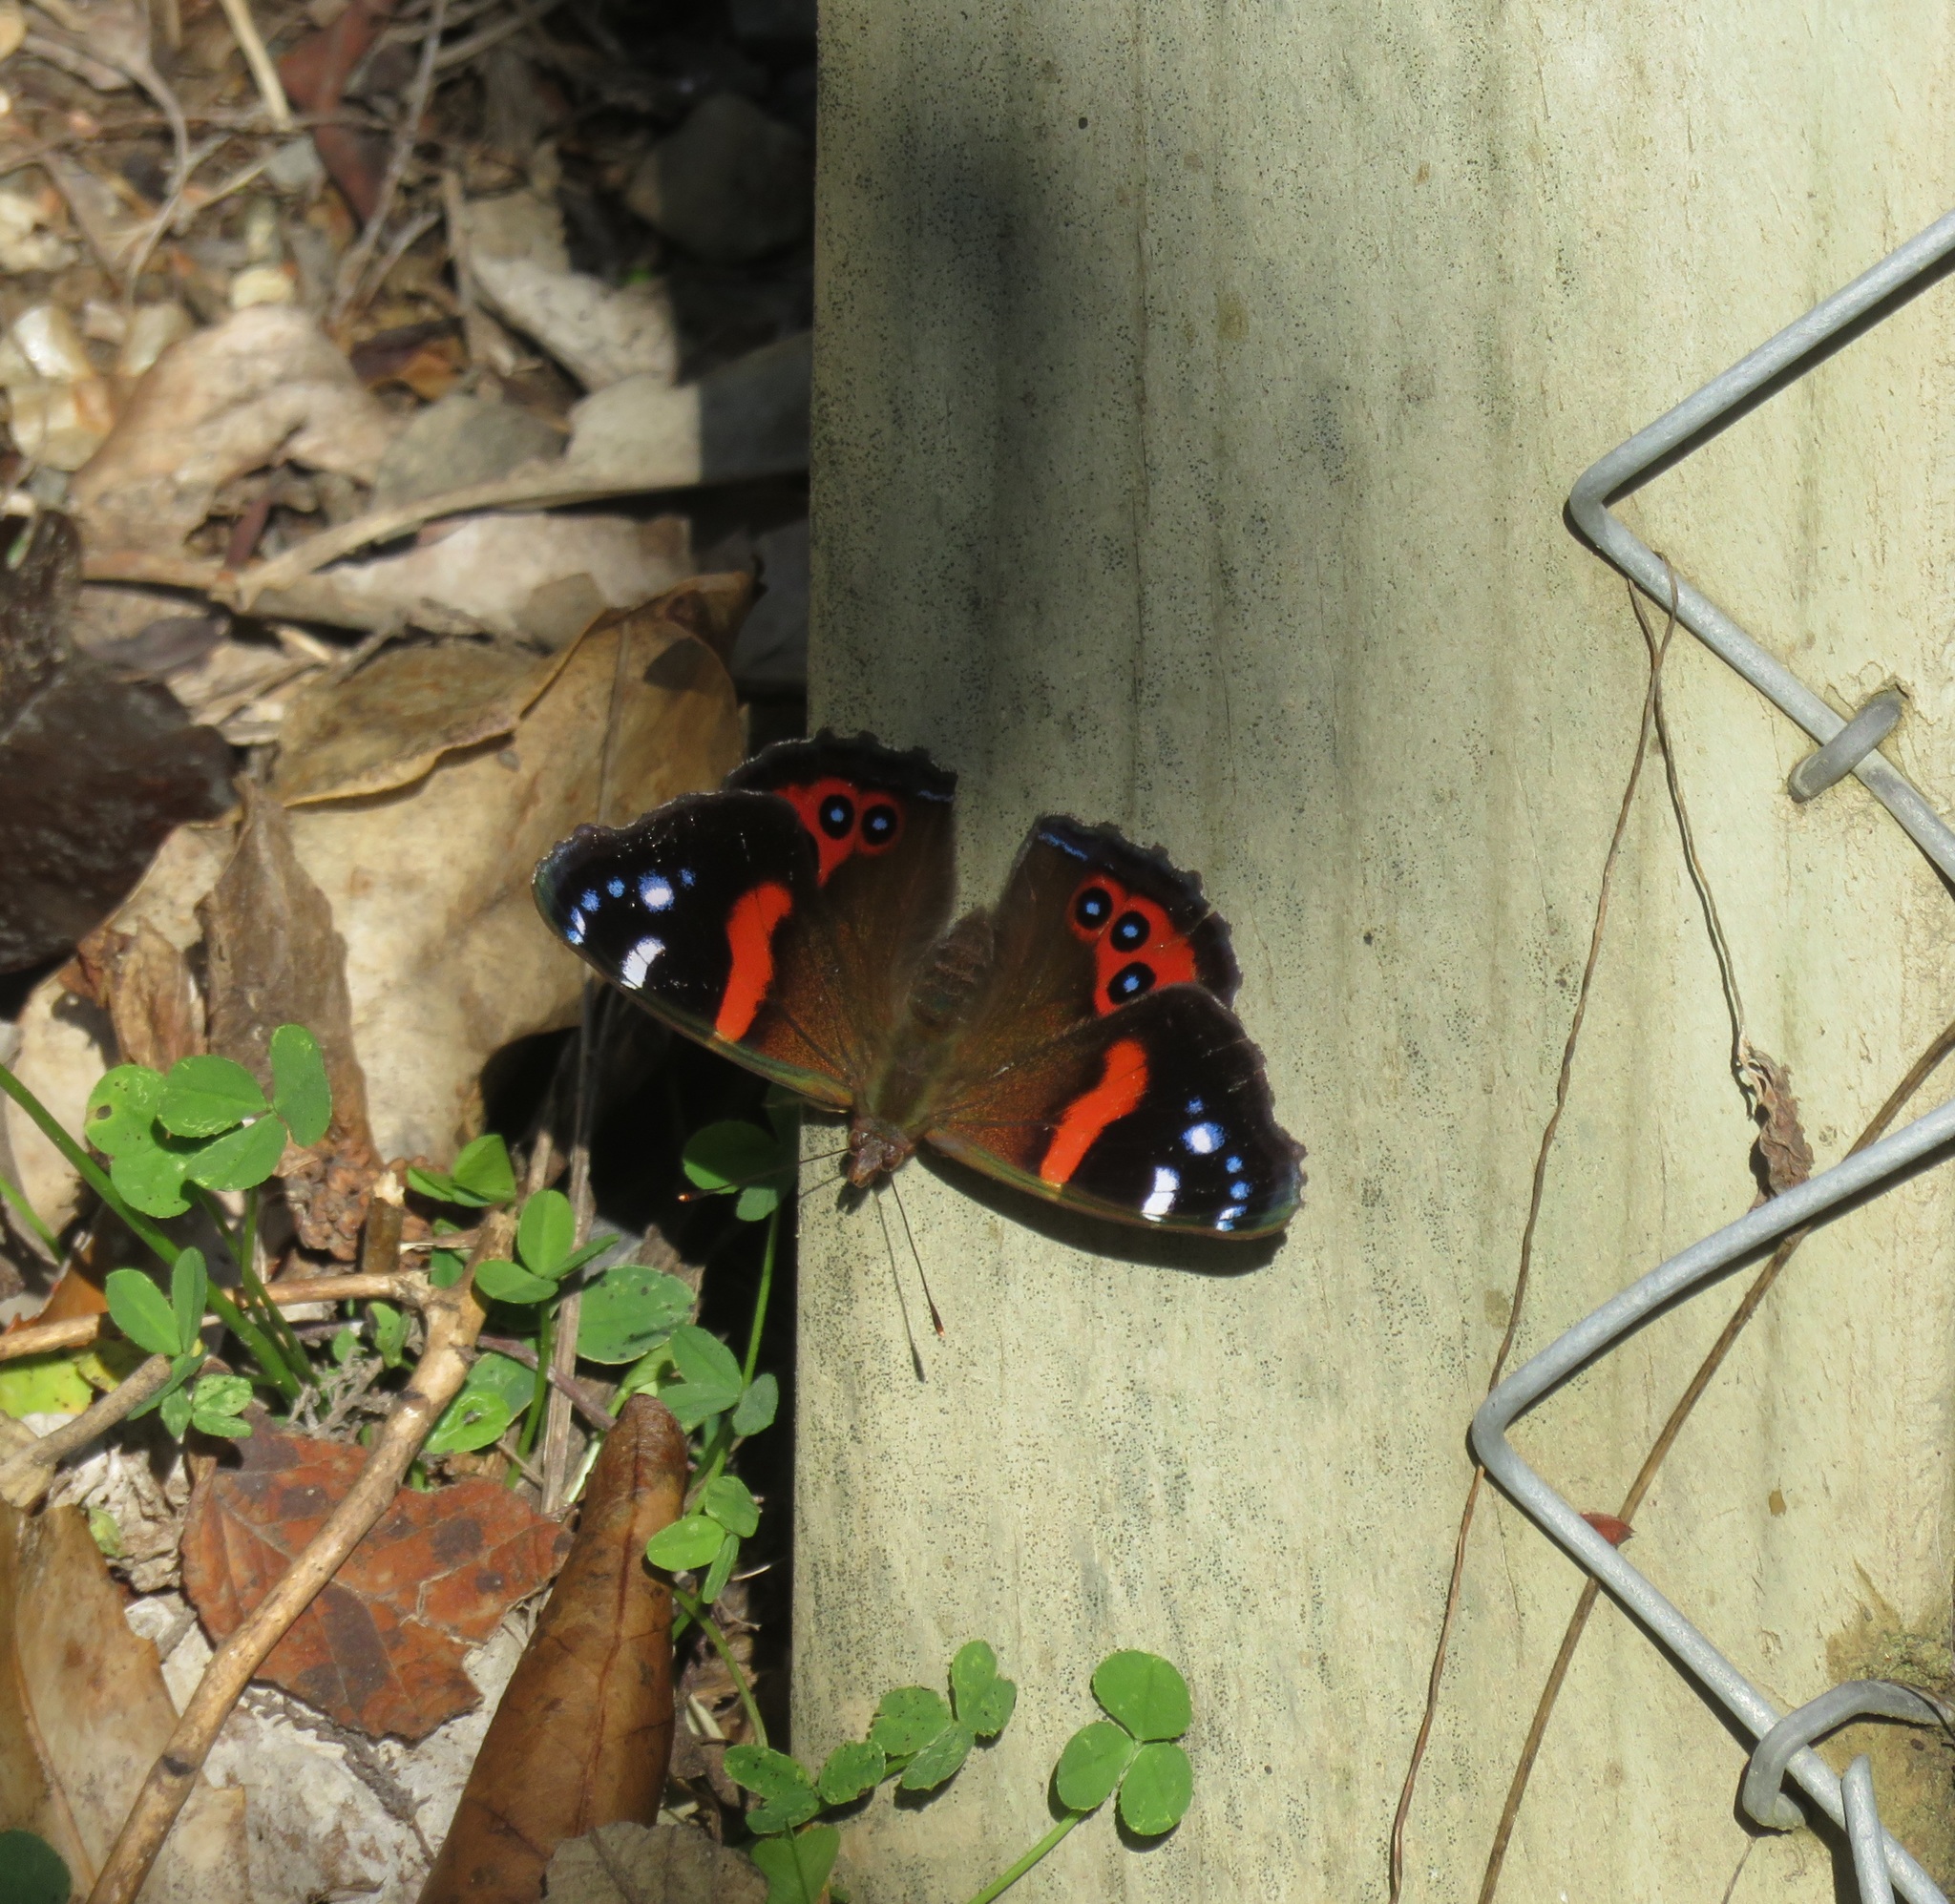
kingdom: Animalia
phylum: Arthropoda
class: Insecta
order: Lepidoptera
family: Nymphalidae
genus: Vanessa
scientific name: Vanessa gonerilla
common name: New zealand red admiral
